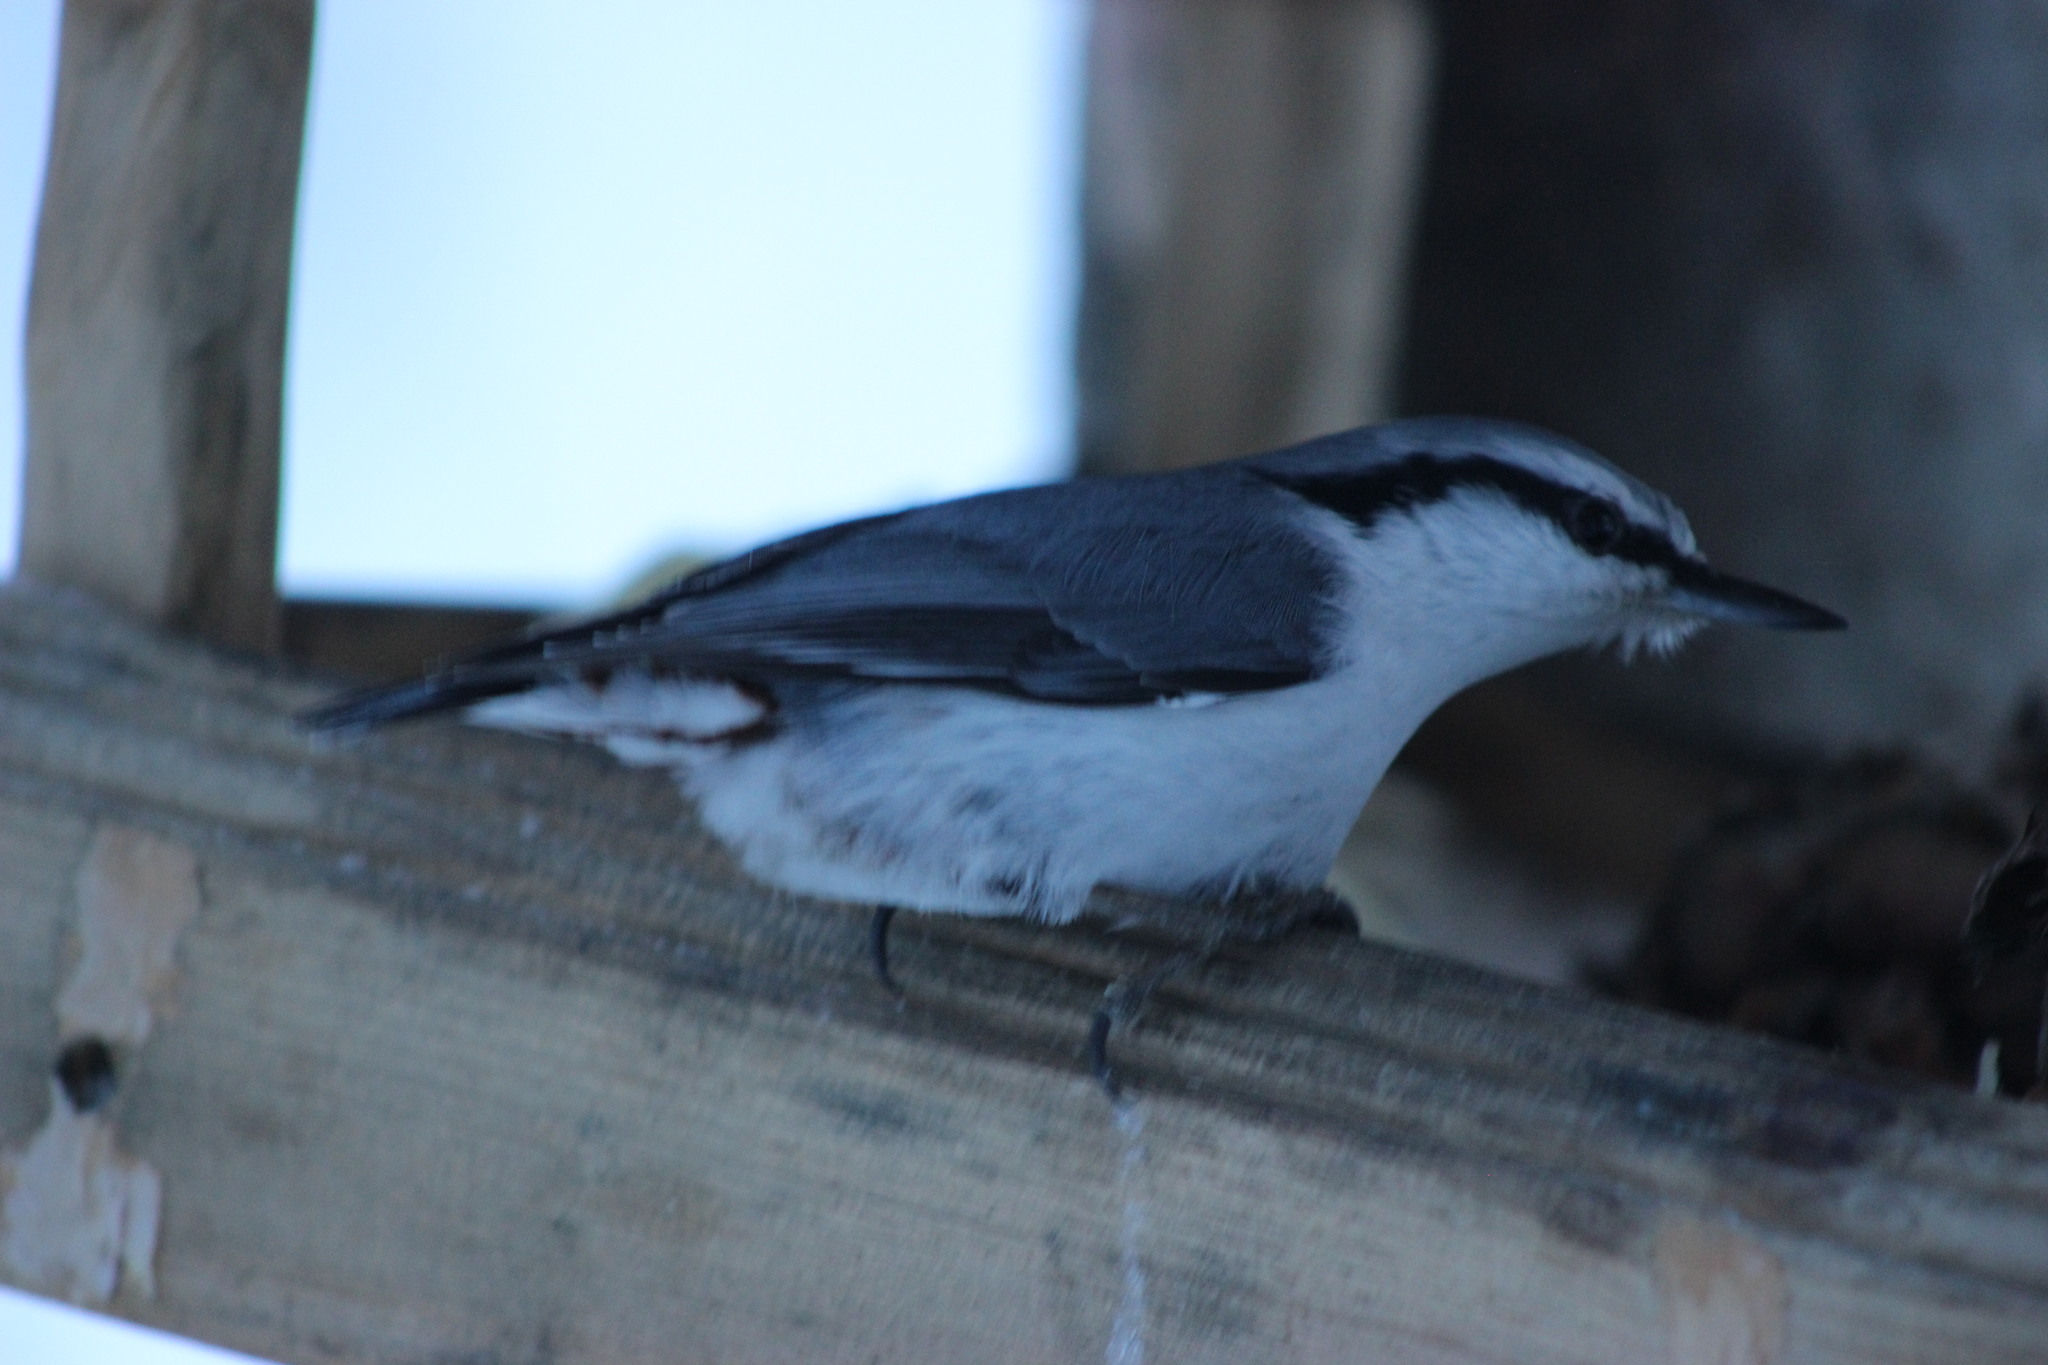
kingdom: Animalia
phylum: Chordata
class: Aves
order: Passeriformes
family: Sittidae
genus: Sitta
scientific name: Sitta europaea
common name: Eurasian nuthatch
